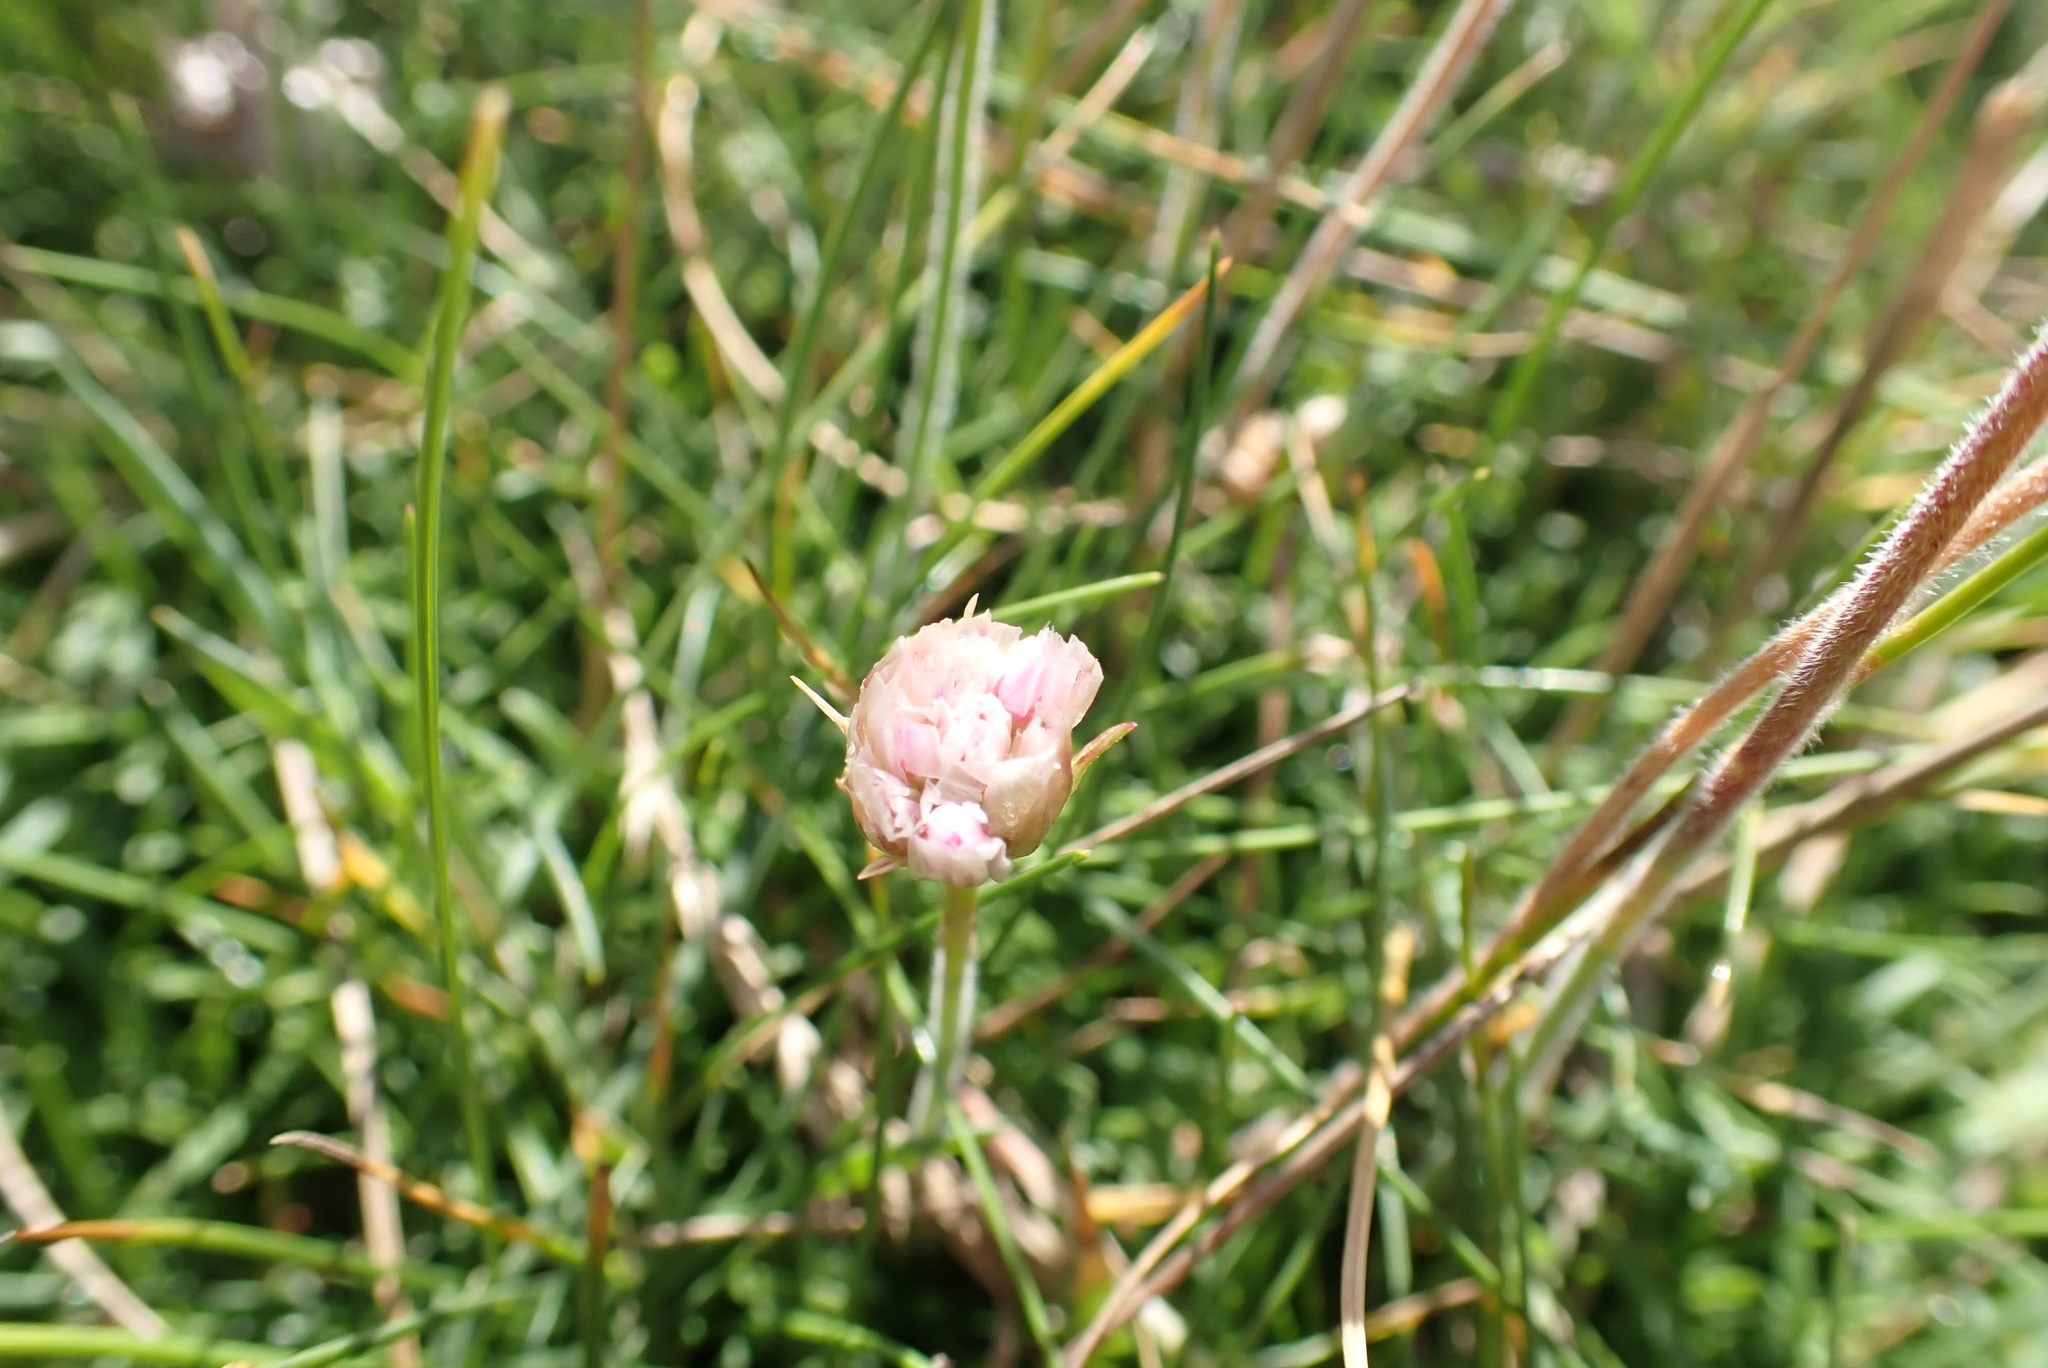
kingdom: Plantae
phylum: Tracheophyta
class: Magnoliopsida
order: Caryophyllales
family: Plumbaginaceae
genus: Armeria
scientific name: Armeria maritima
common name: Thrift
